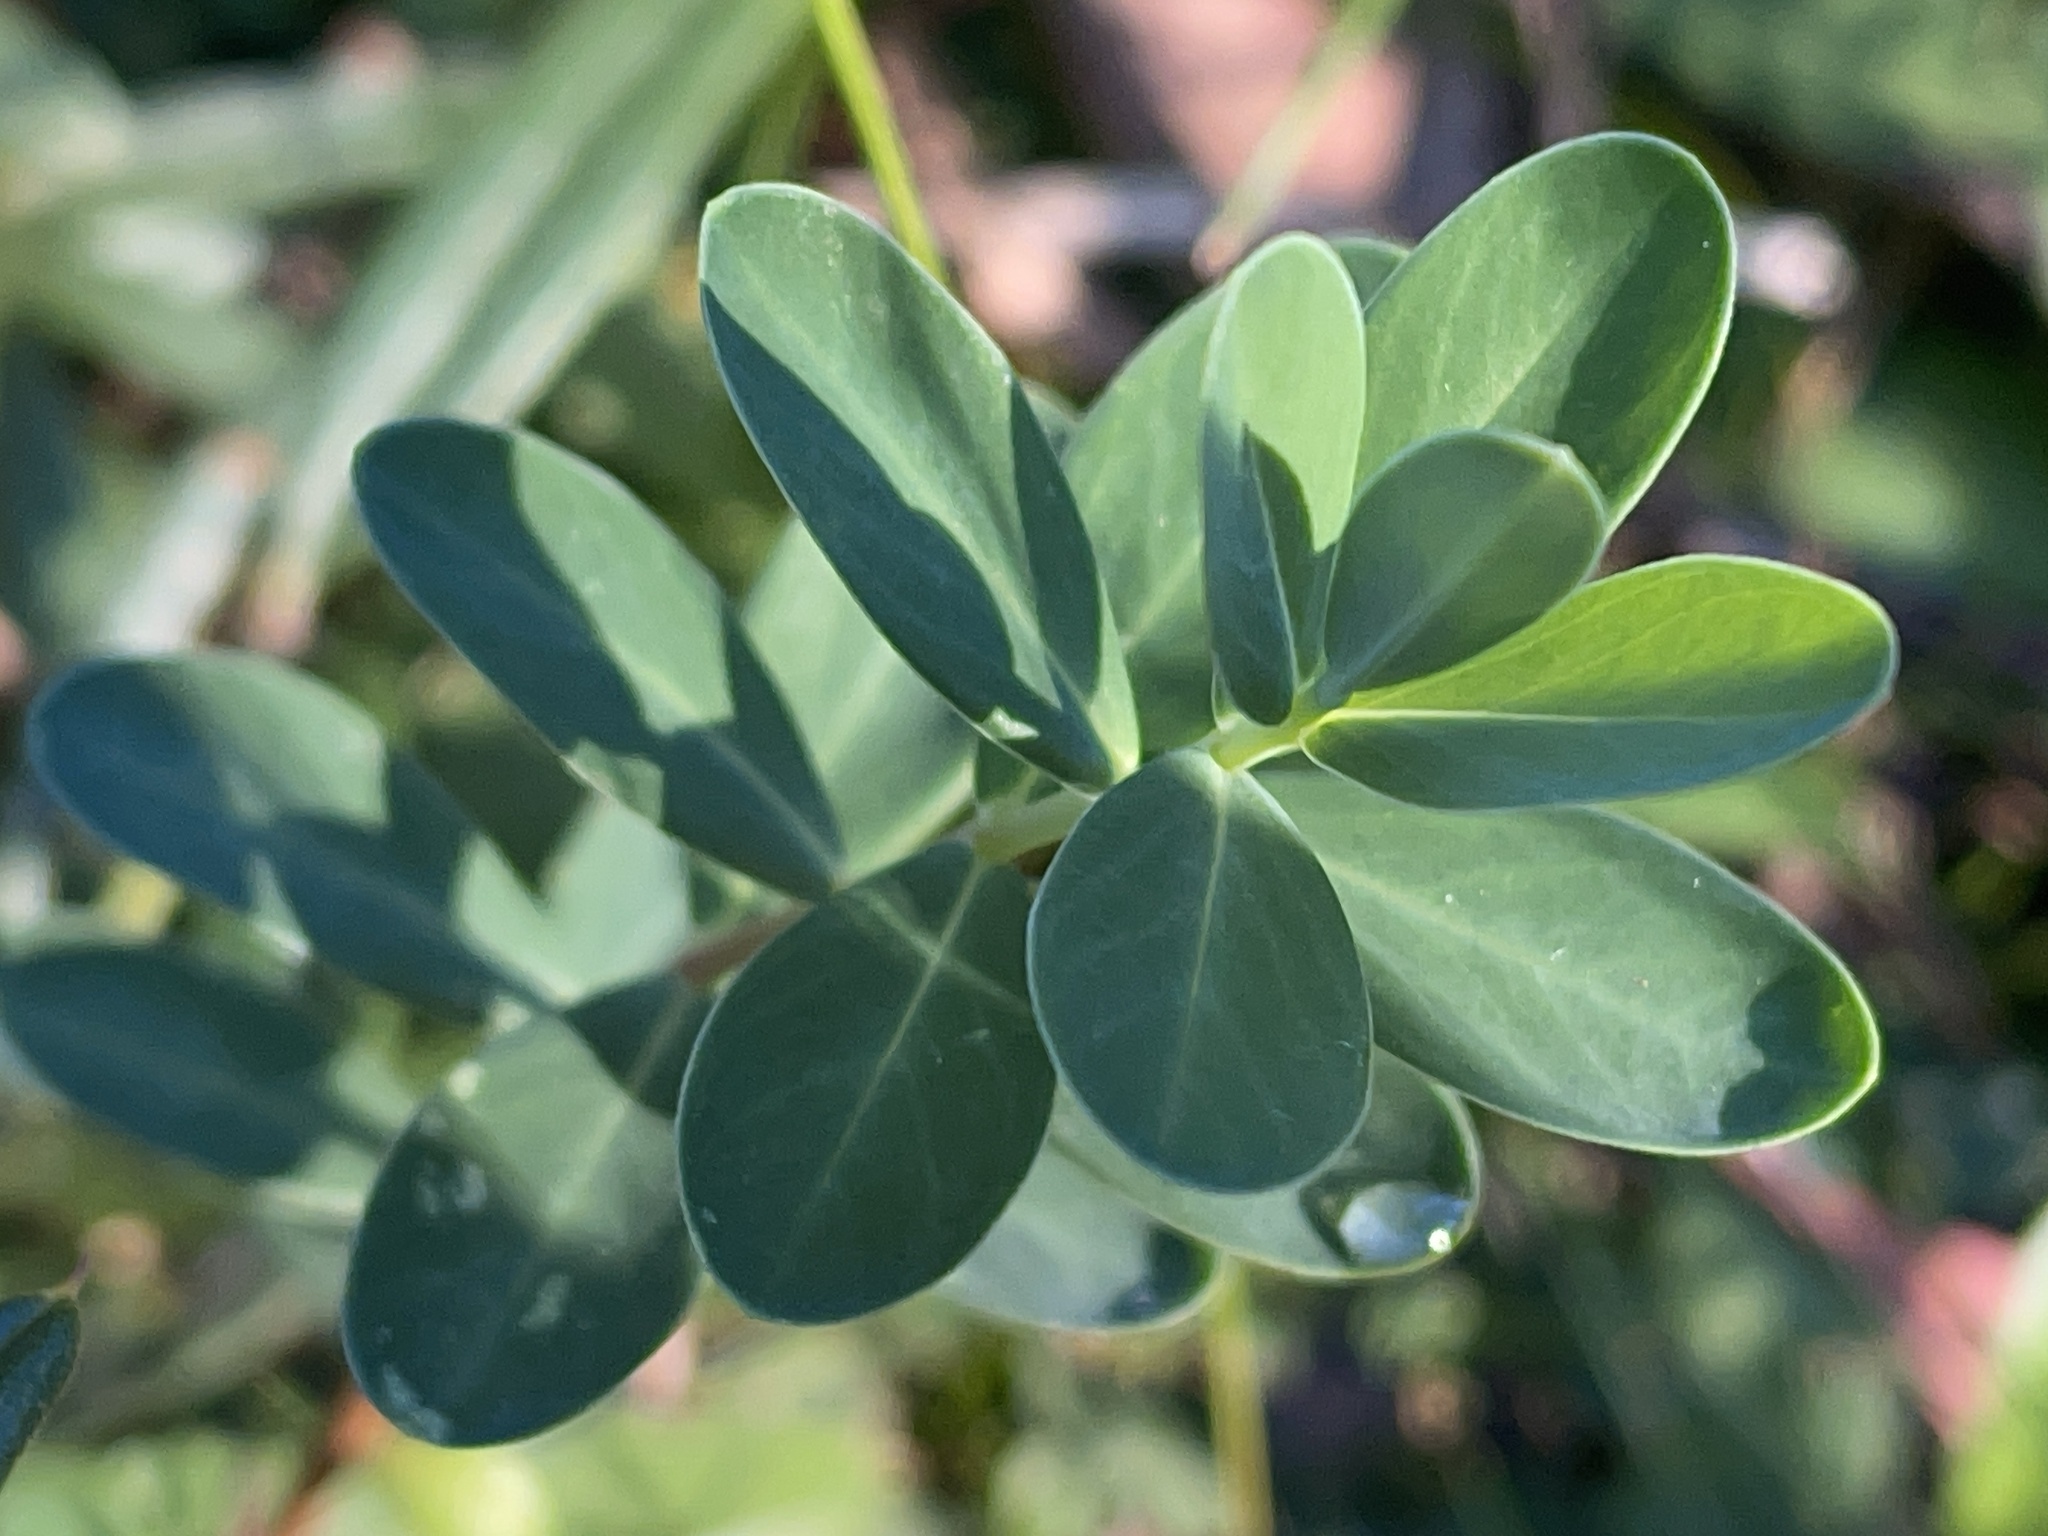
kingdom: Plantae
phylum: Tracheophyta
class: Magnoliopsida
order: Malvales
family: Thymelaeaceae
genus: Pimelea
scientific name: Pimelea ligustrina
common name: Tall riceflower
